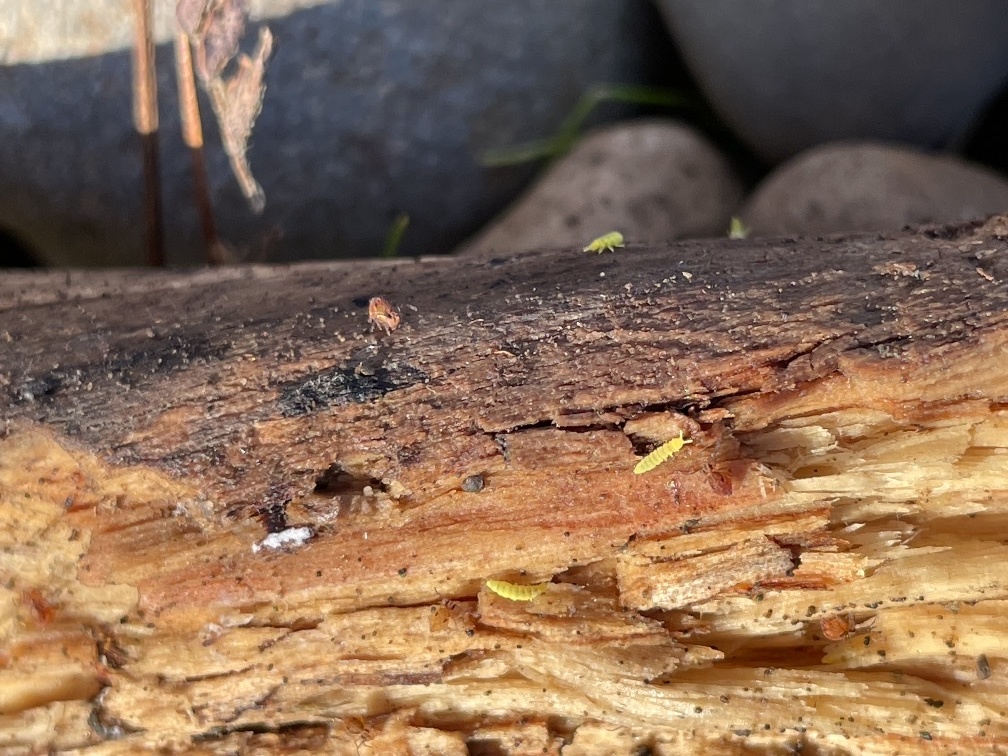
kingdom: Animalia
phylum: Arthropoda
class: Collembola
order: Poduromorpha
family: Onychiuridae
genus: Hymenaphorura
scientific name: Hymenaphorura cocklei
